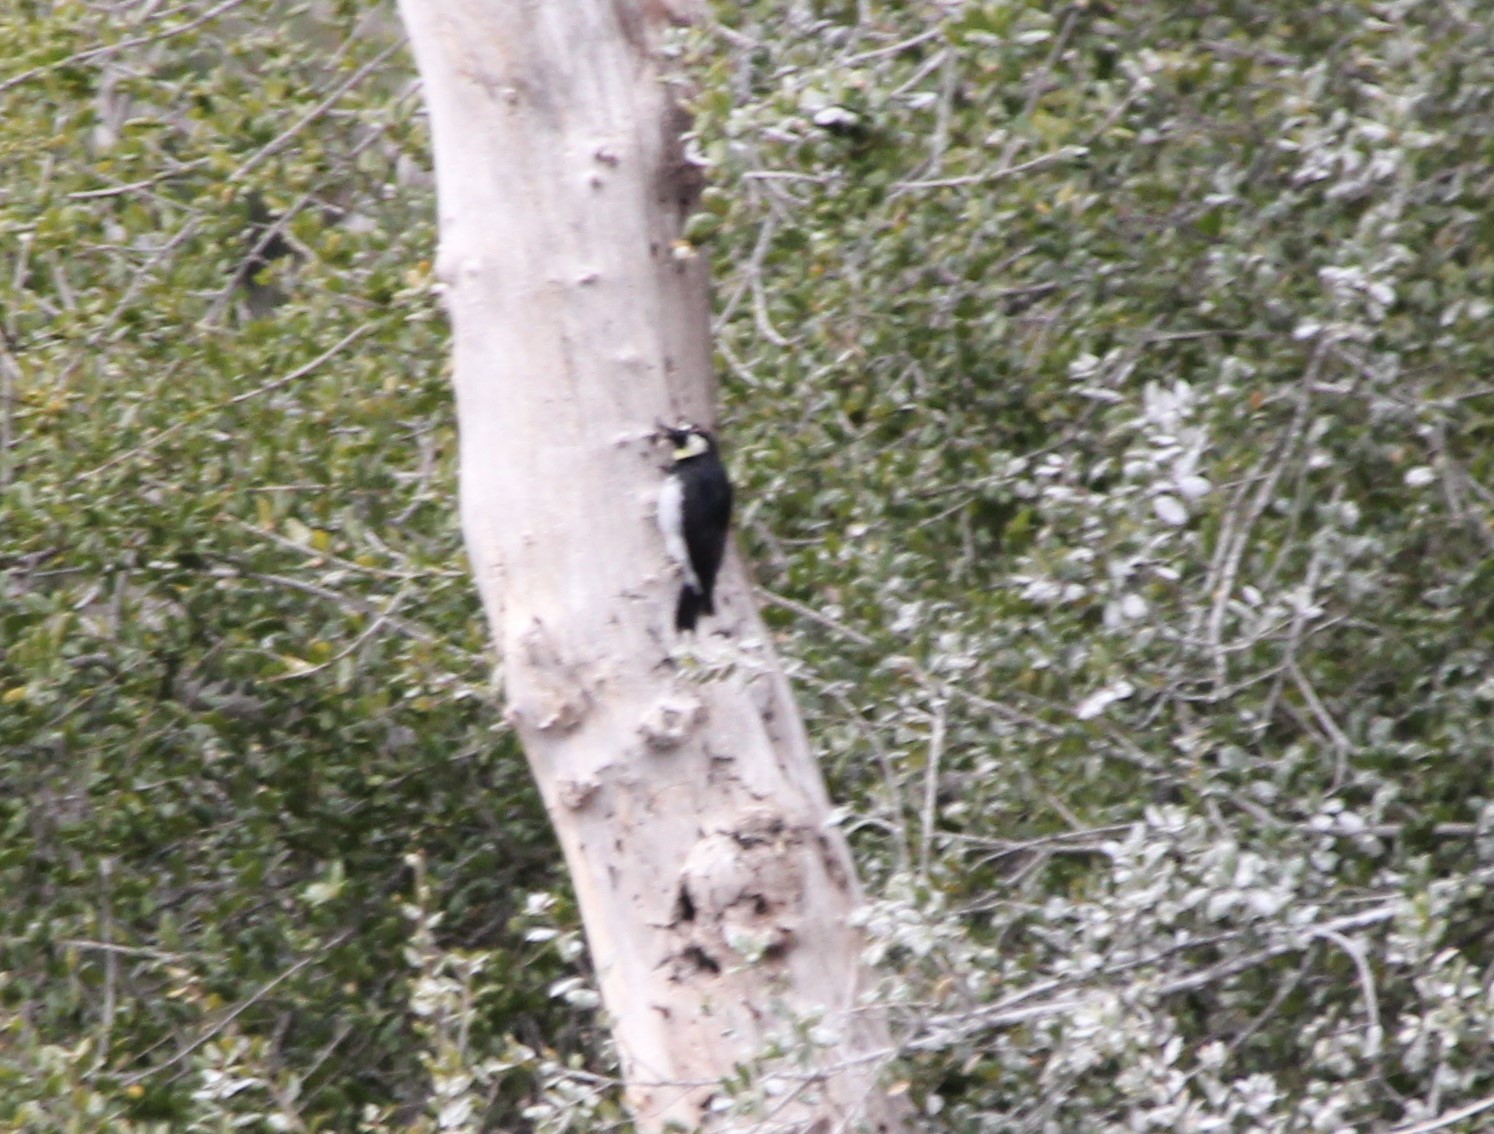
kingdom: Animalia
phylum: Chordata
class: Aves
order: Piciformes
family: Picidae
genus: Melanerpes
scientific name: Melanerpes formicivorus
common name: Acorn woodpecker
